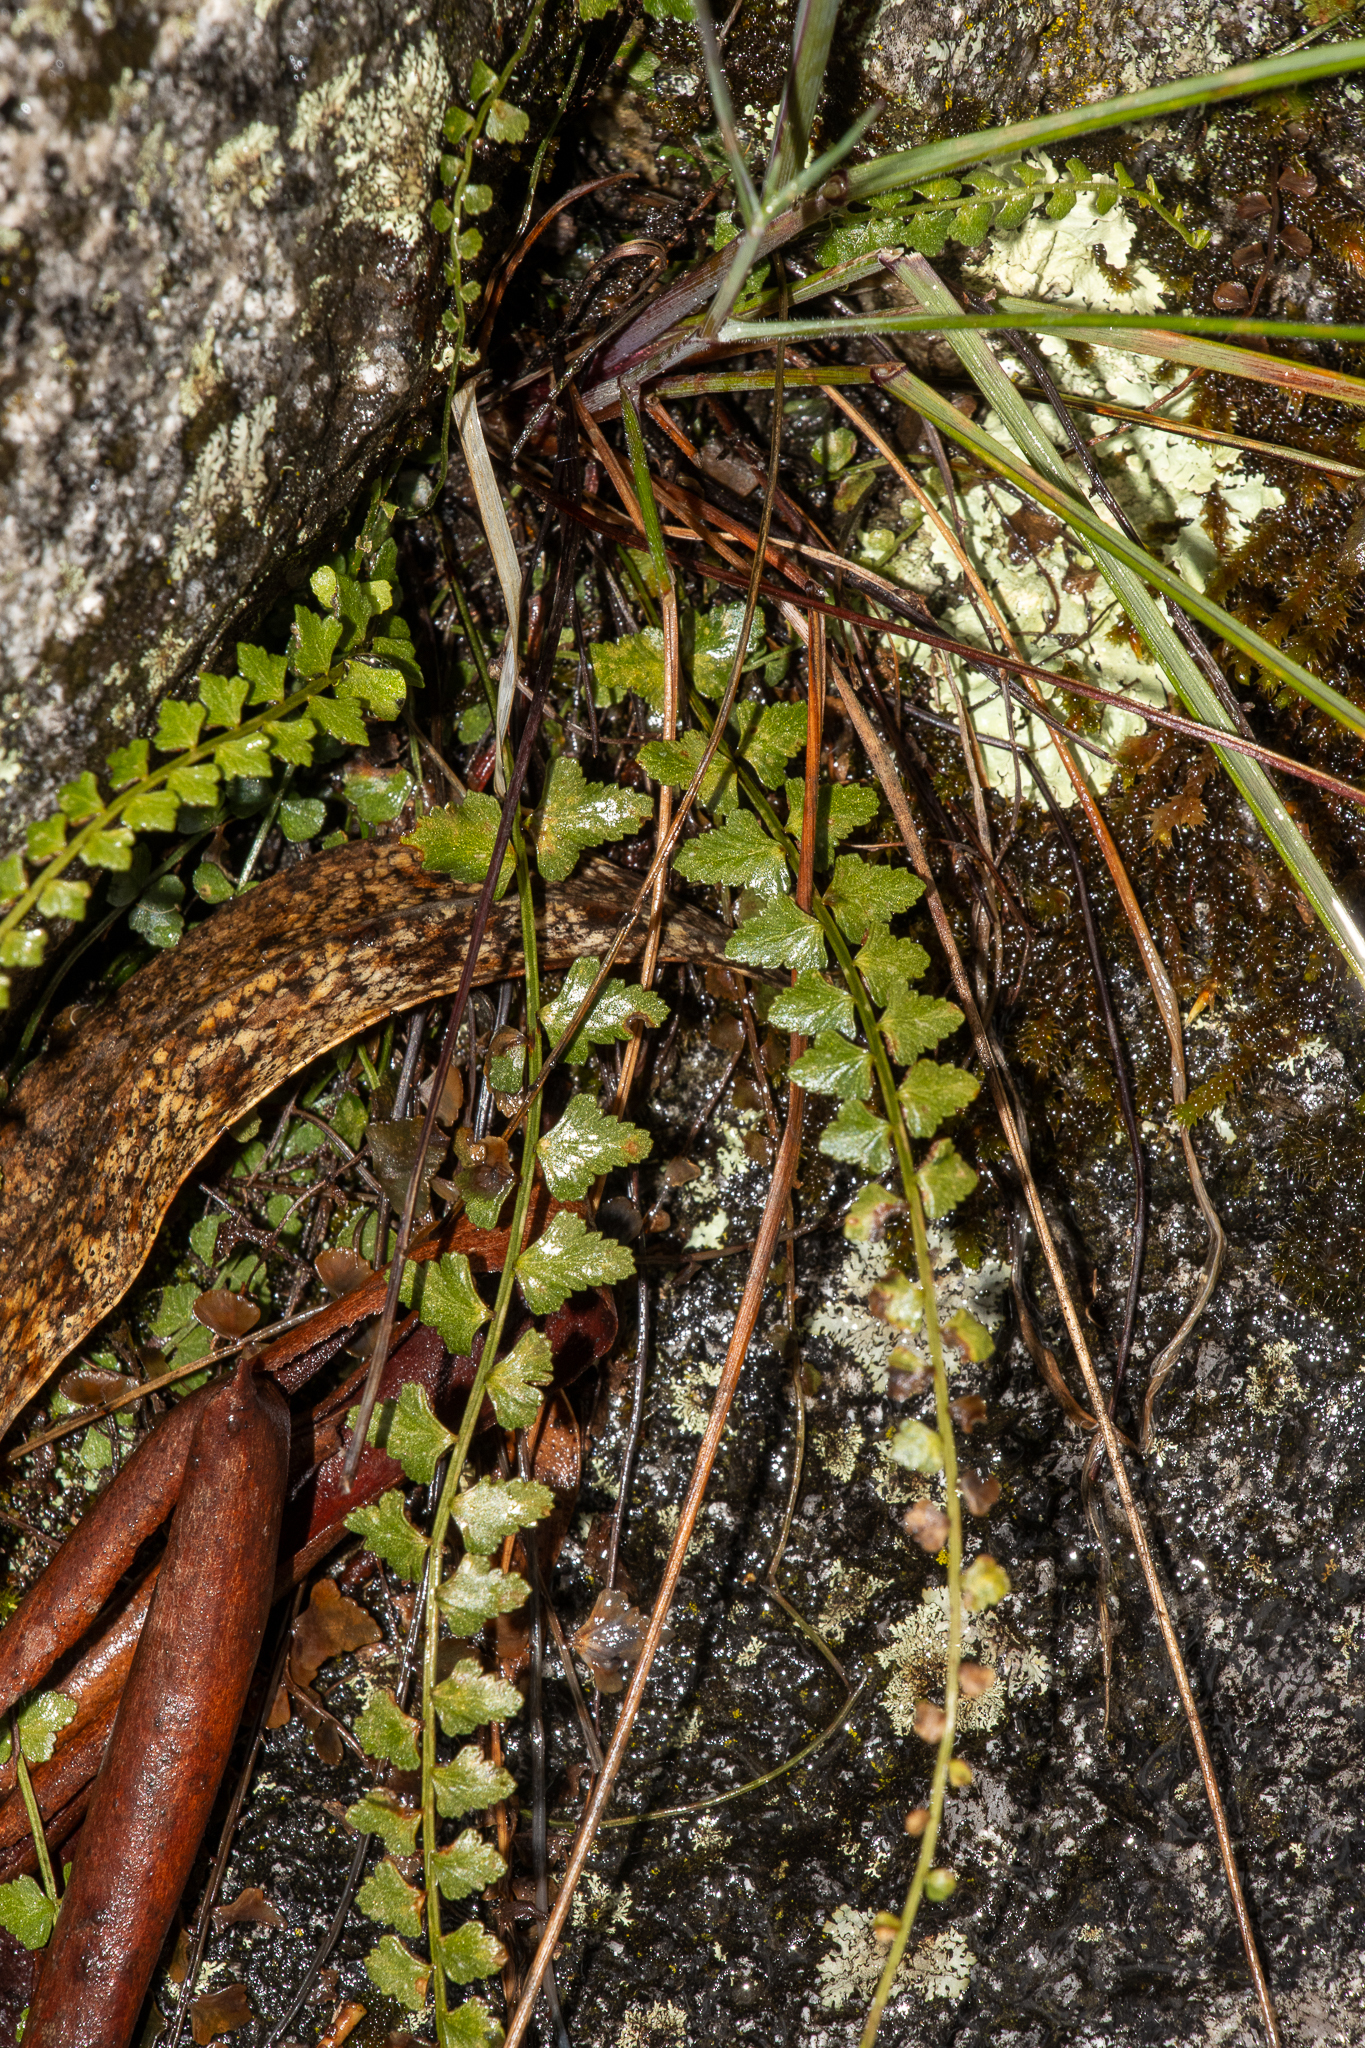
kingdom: Plantae
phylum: Tracheophyta
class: Polypodiopsida
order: Polypodiales
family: Aspleniaceae
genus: Asplenium
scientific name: Asplenium flabellifolium
